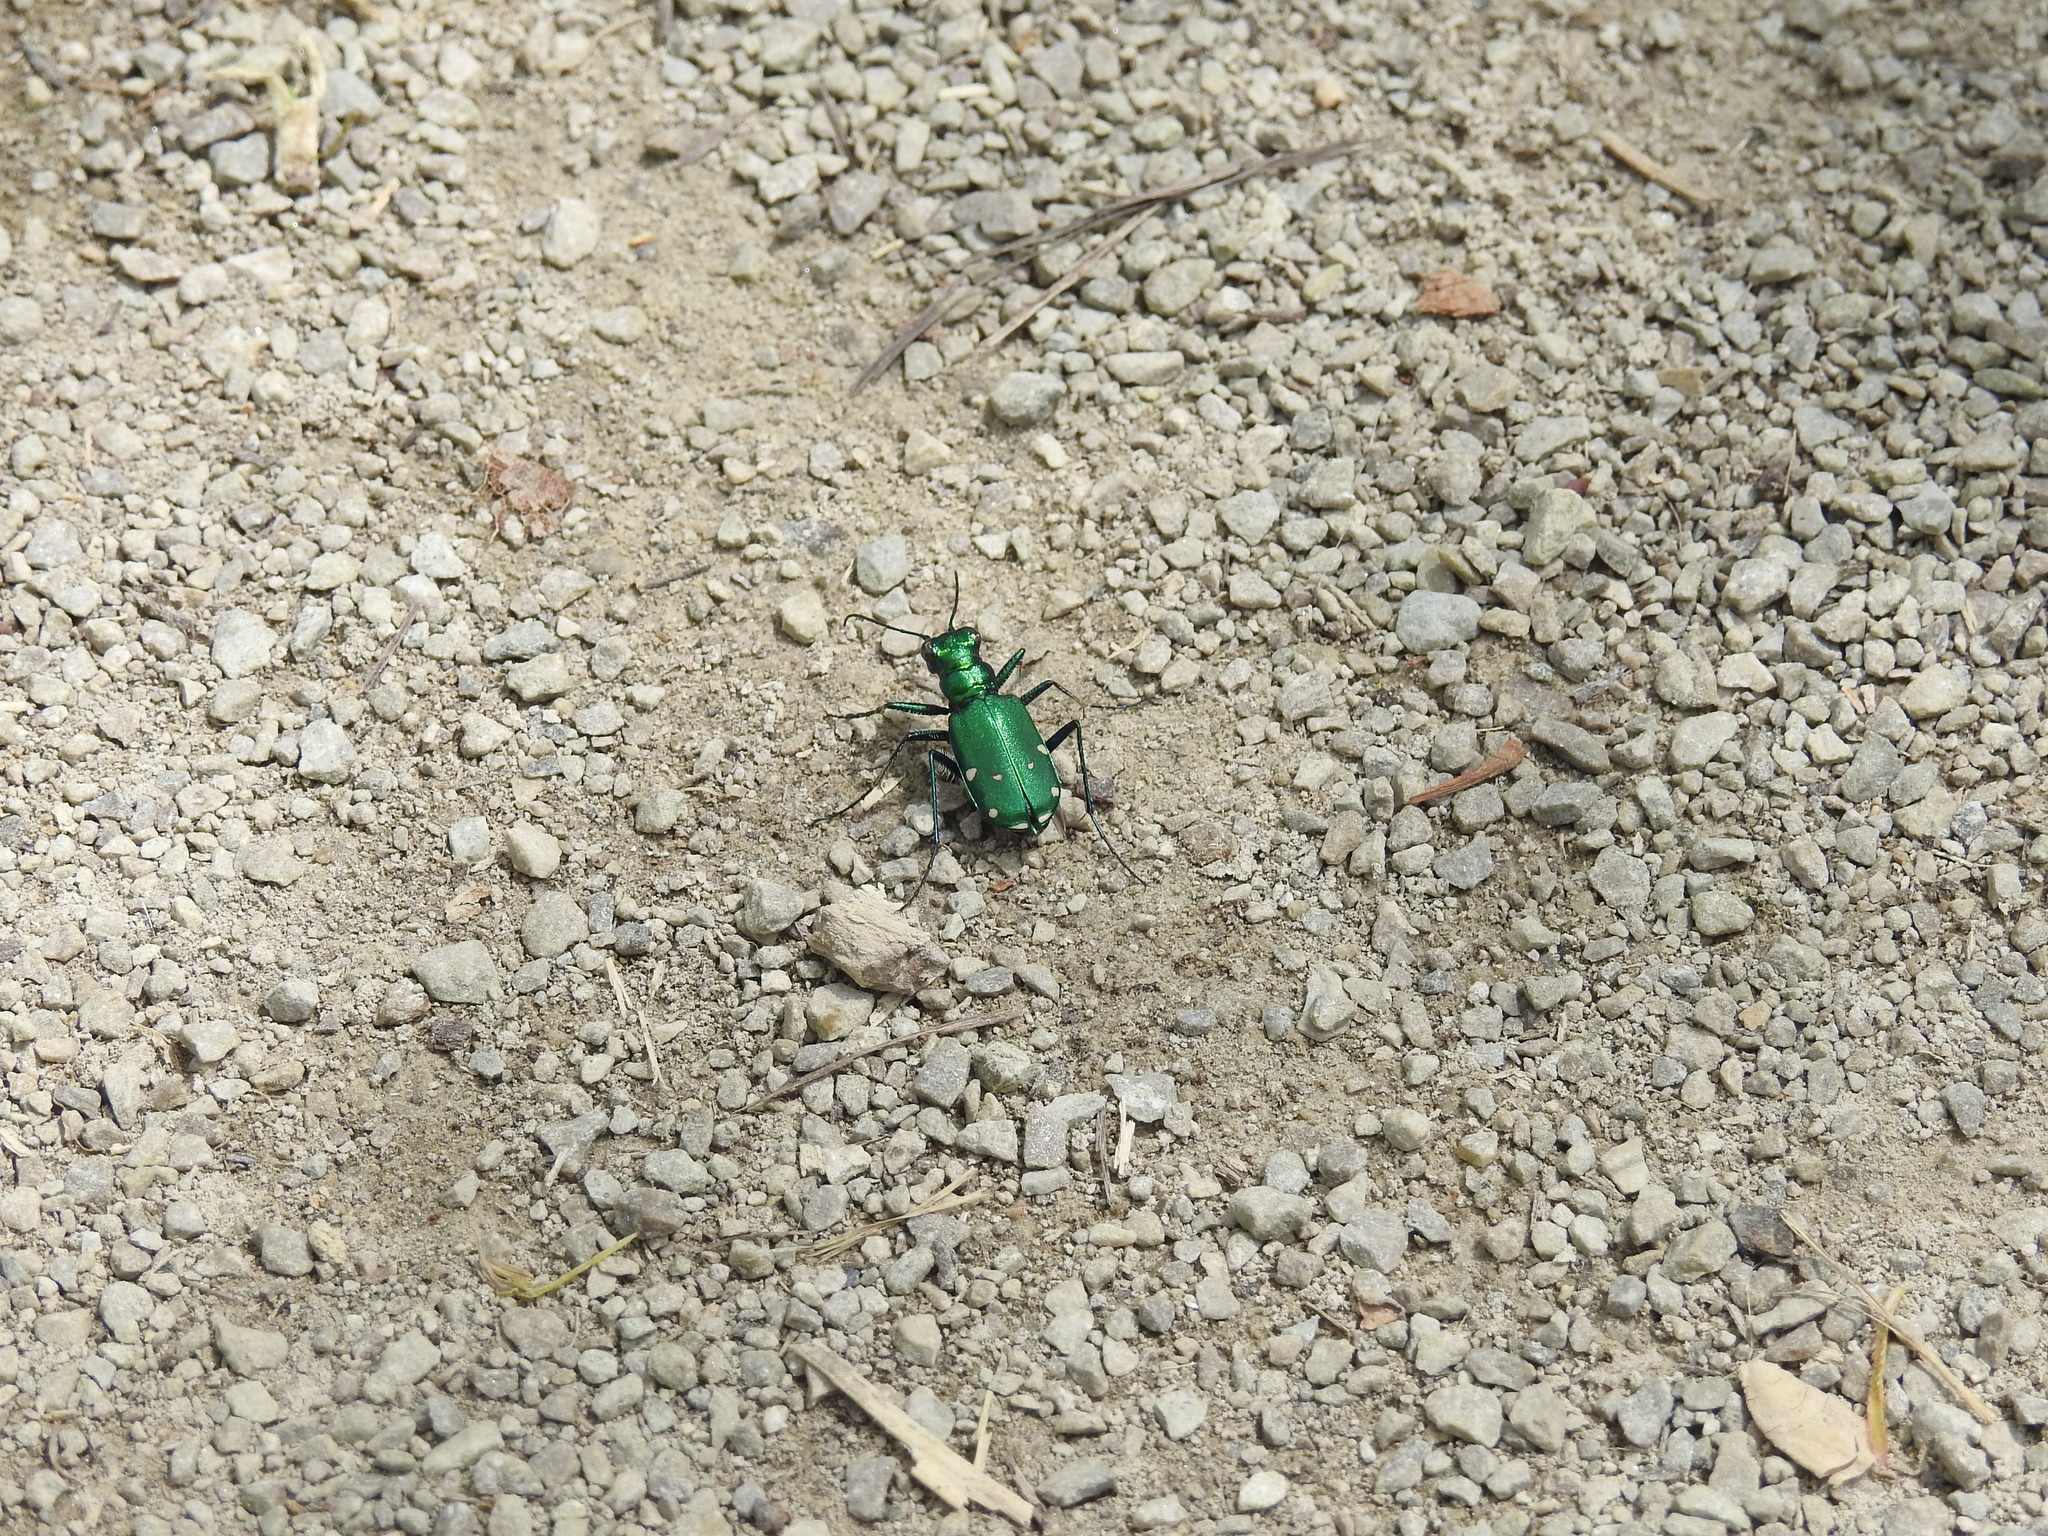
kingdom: Animalia
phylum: Arthropoda
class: Insecta
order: Coleoptera
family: Carabidae
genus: Cicindela
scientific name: Cicindela sexguttata
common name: Six-spotted tiger beetle
